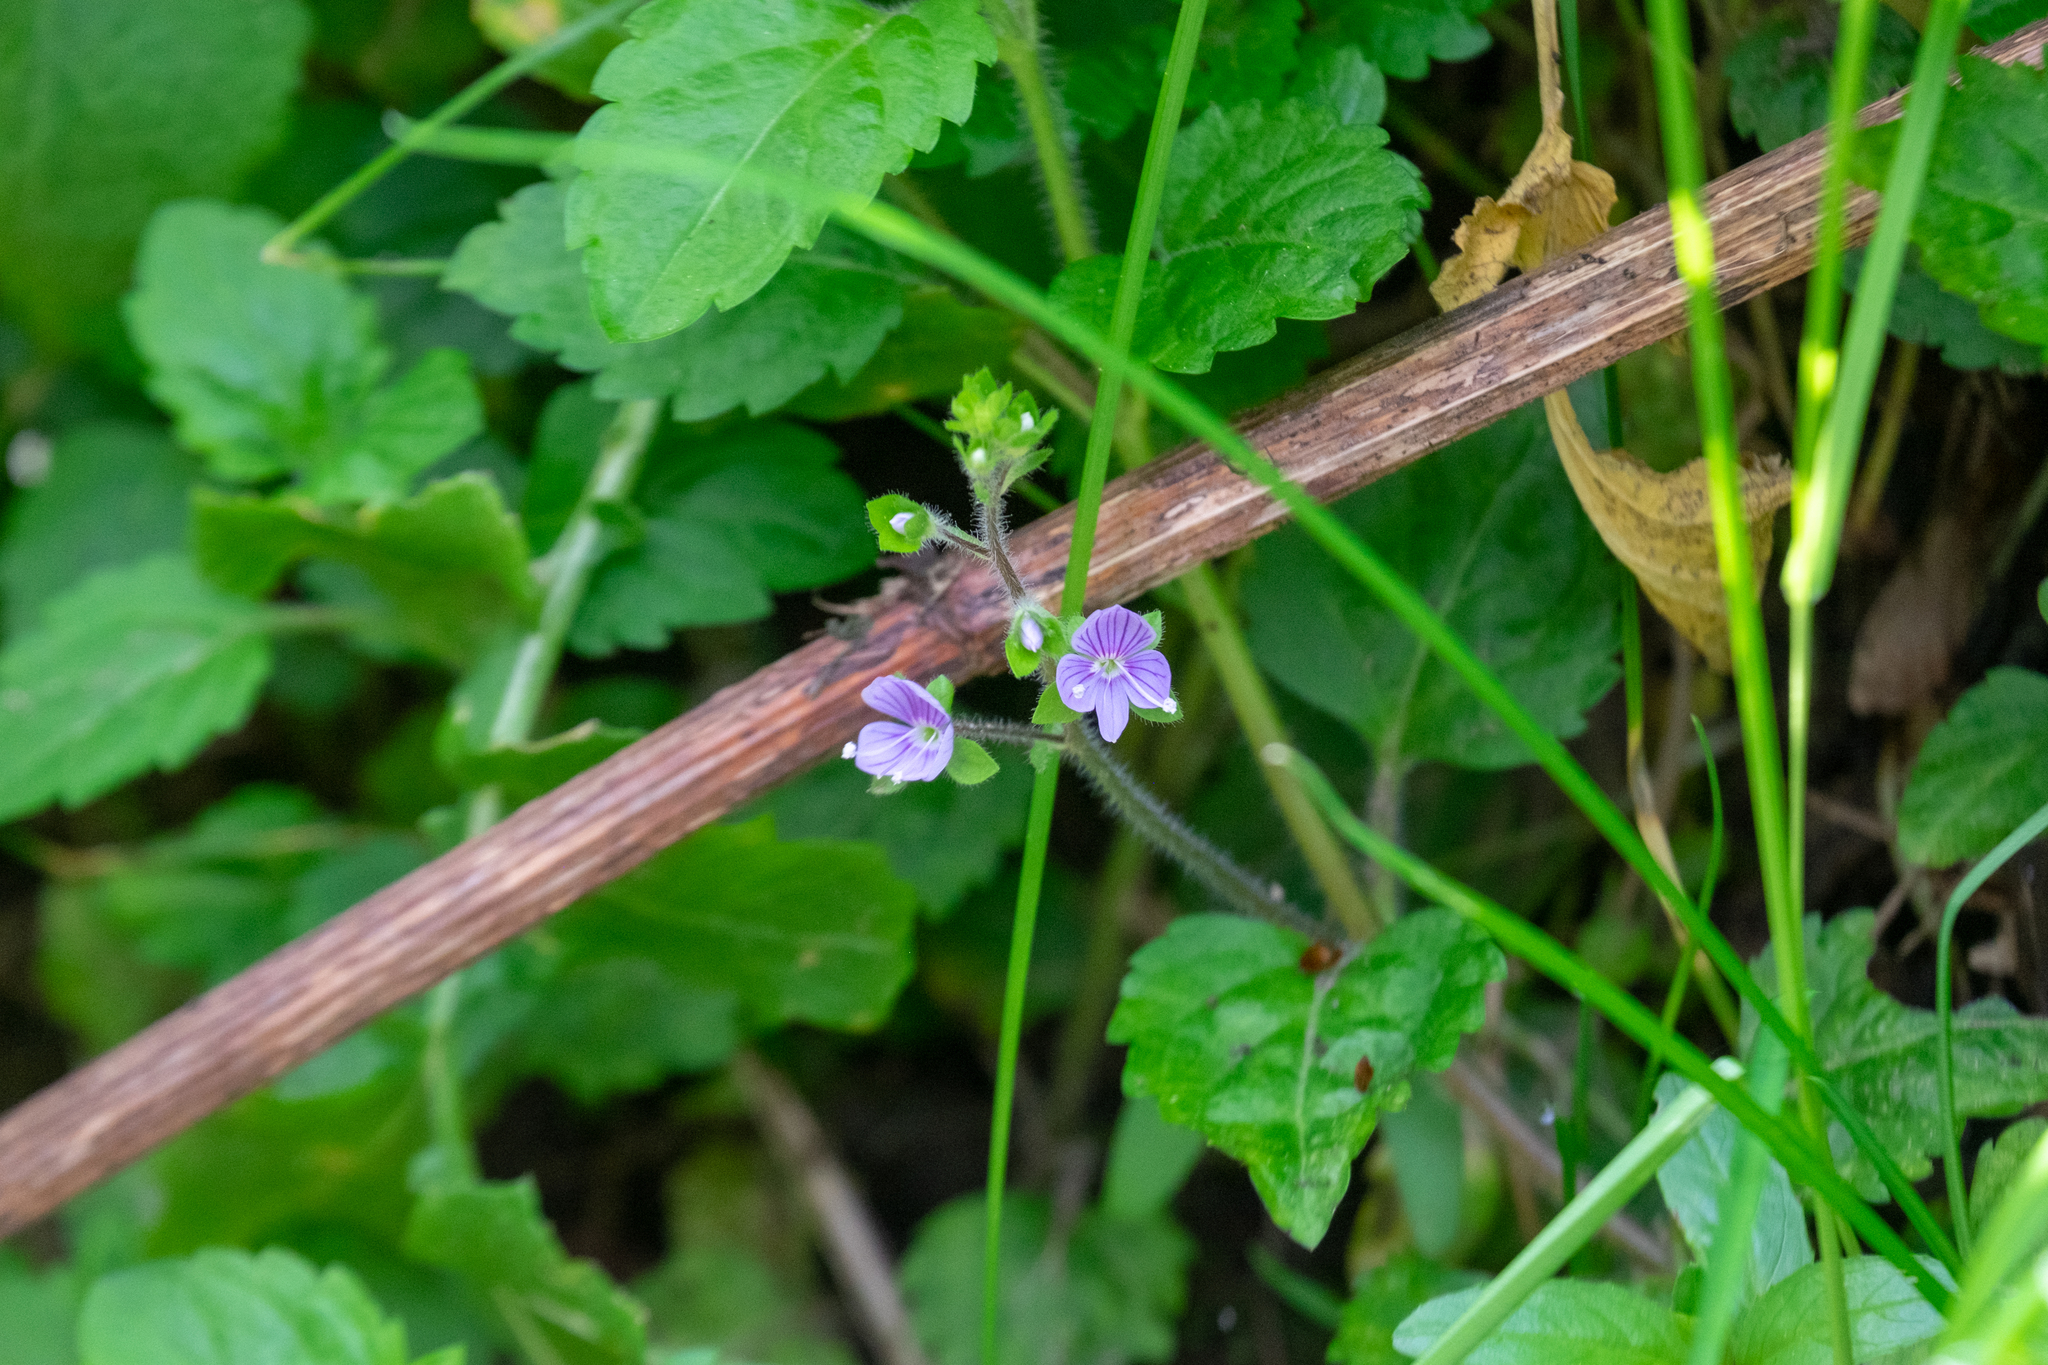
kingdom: Plantae
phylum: Tracheophyta
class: Magnoliopsida
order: Lamiales
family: Plantaginaceae
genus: Veronica
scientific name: Veronica montana
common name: Wood speedwell
